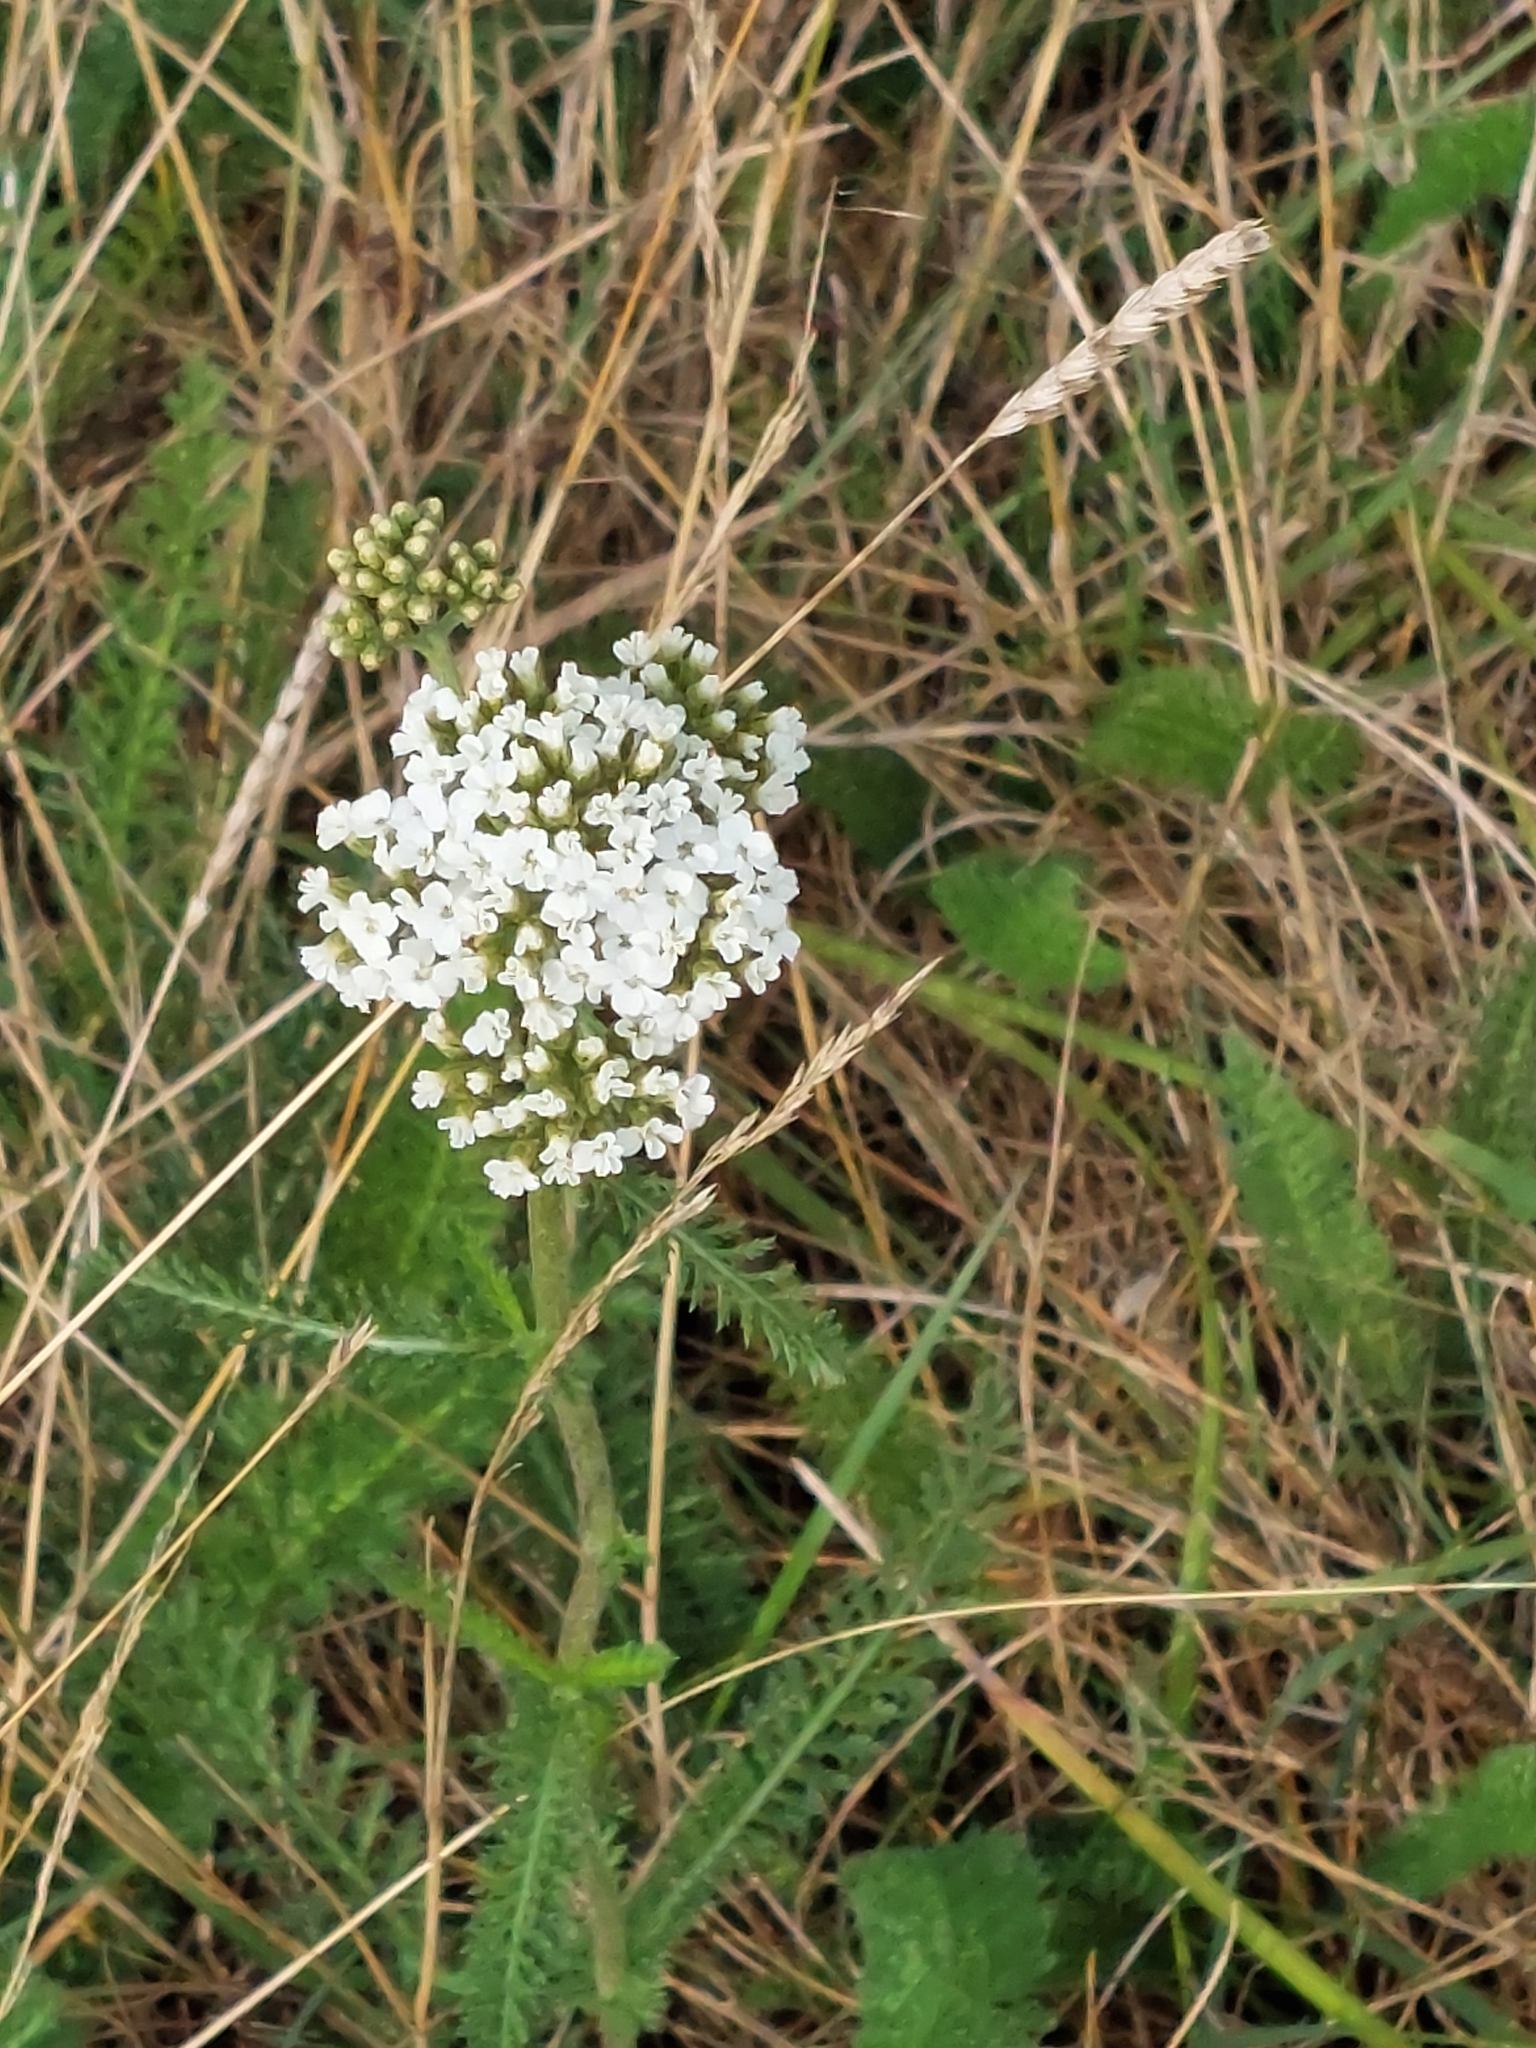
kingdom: Plantae
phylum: Tracheophyta
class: Magnoliopsida
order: Asterales
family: Asteraceae
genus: Achillea
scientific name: Achillea millefolium
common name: Yarrow
